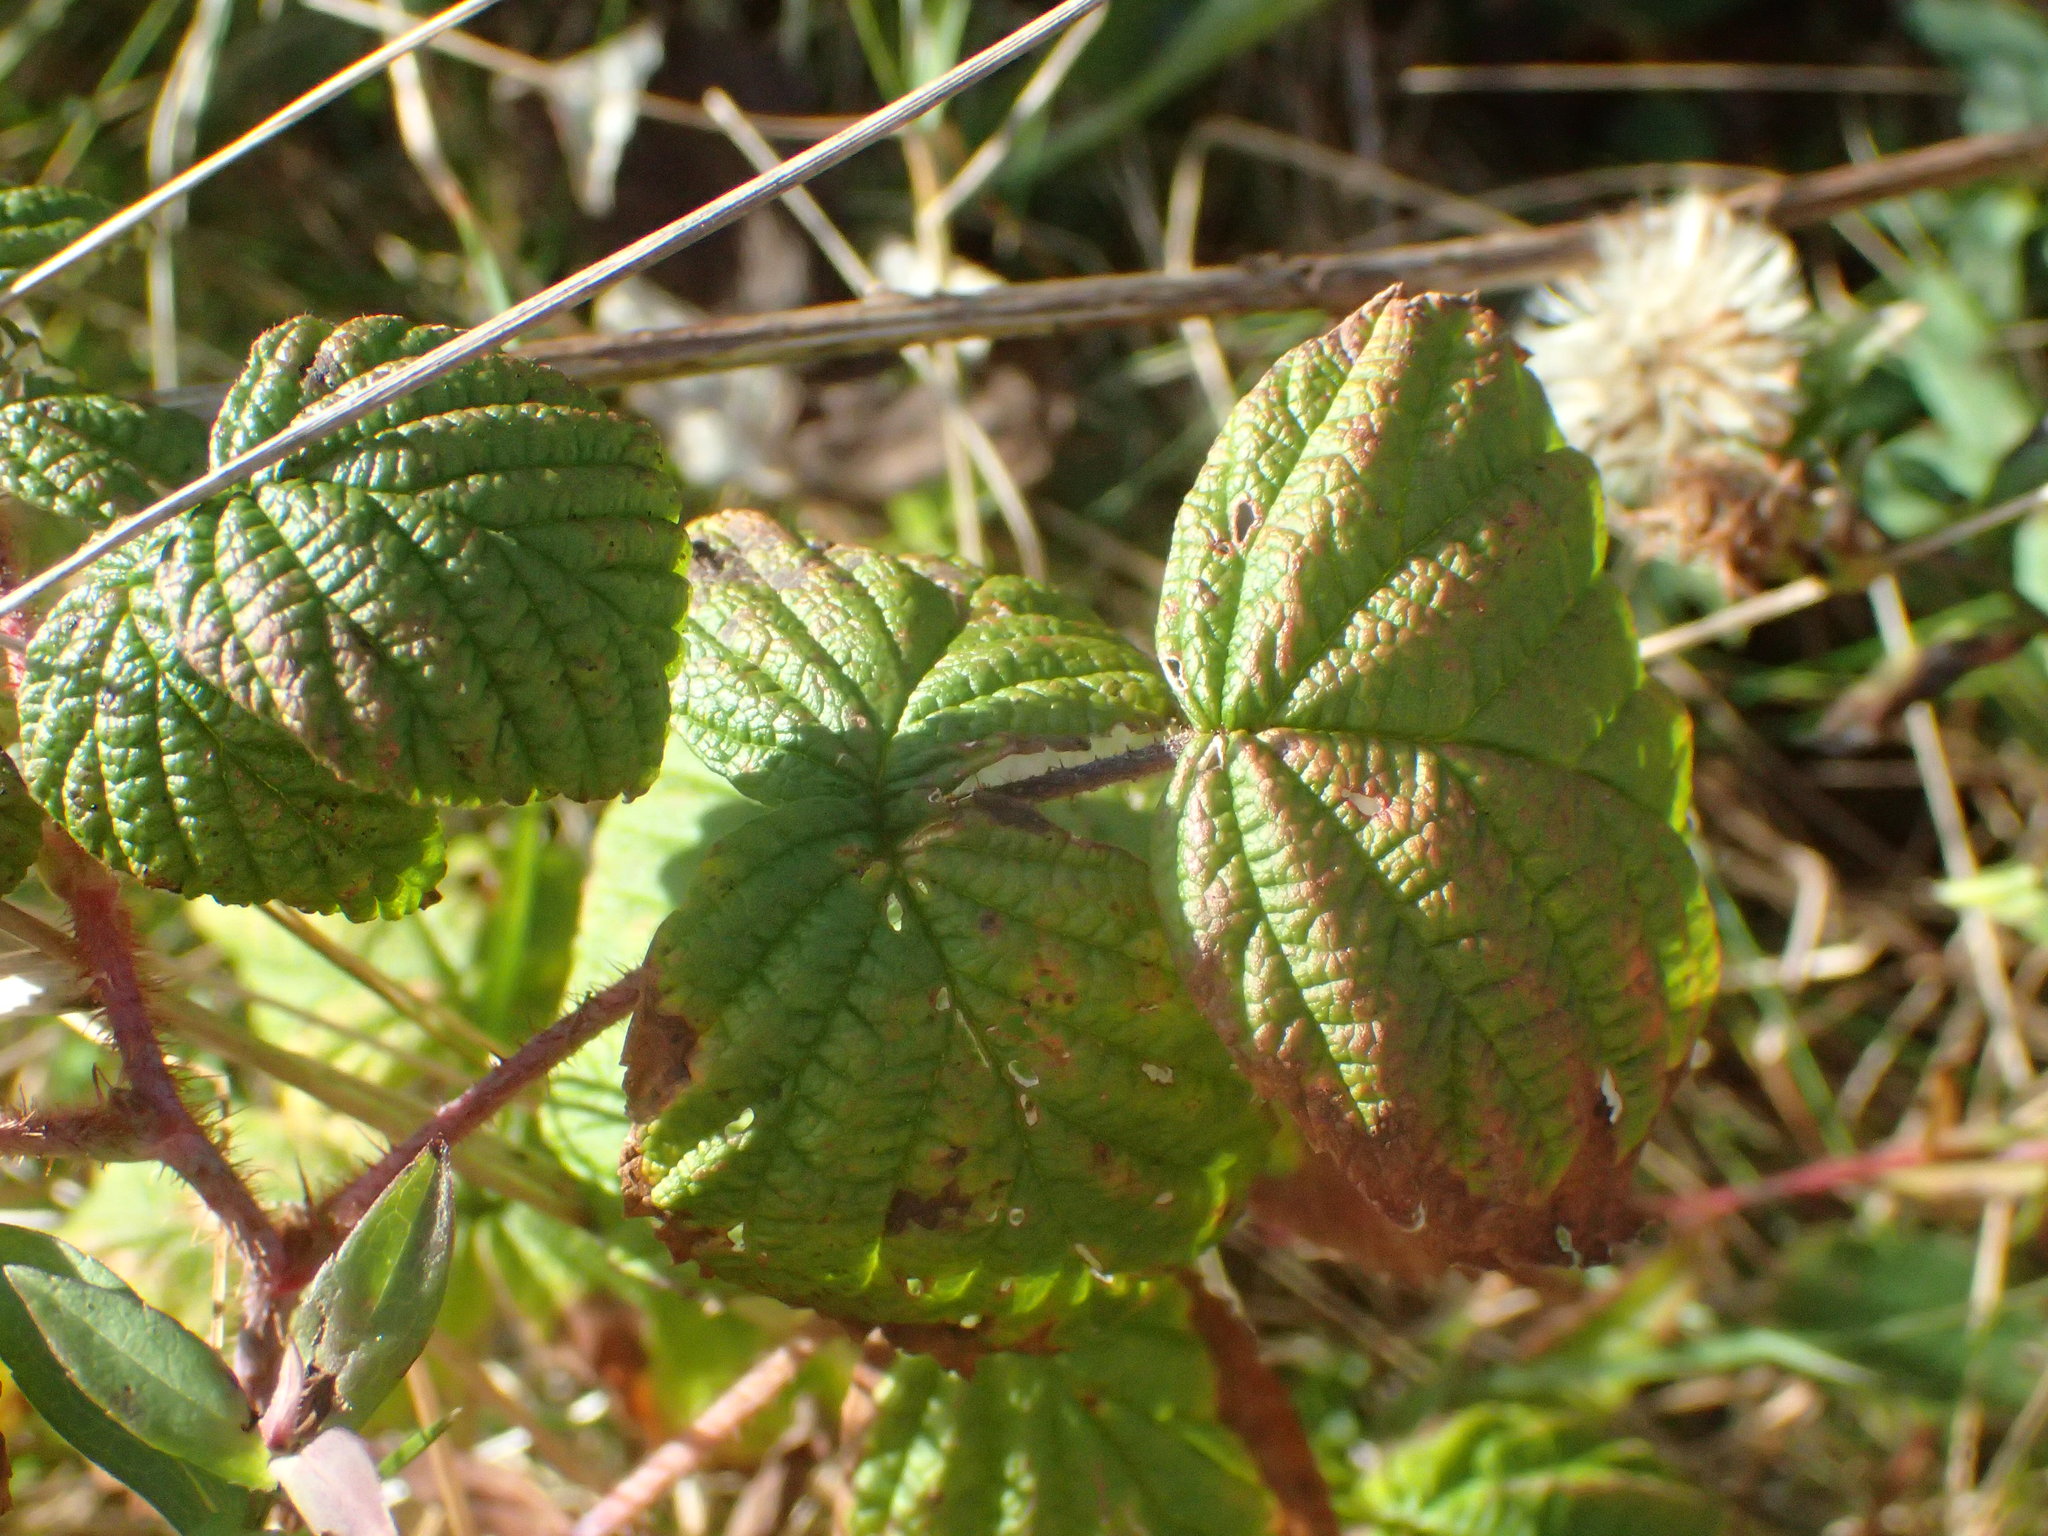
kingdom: Plantae
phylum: Tracheophyta
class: Magnoliopsida
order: Rosales
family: Rosaceae
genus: Rubus
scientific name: Rubus idaeus
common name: Raspberry
